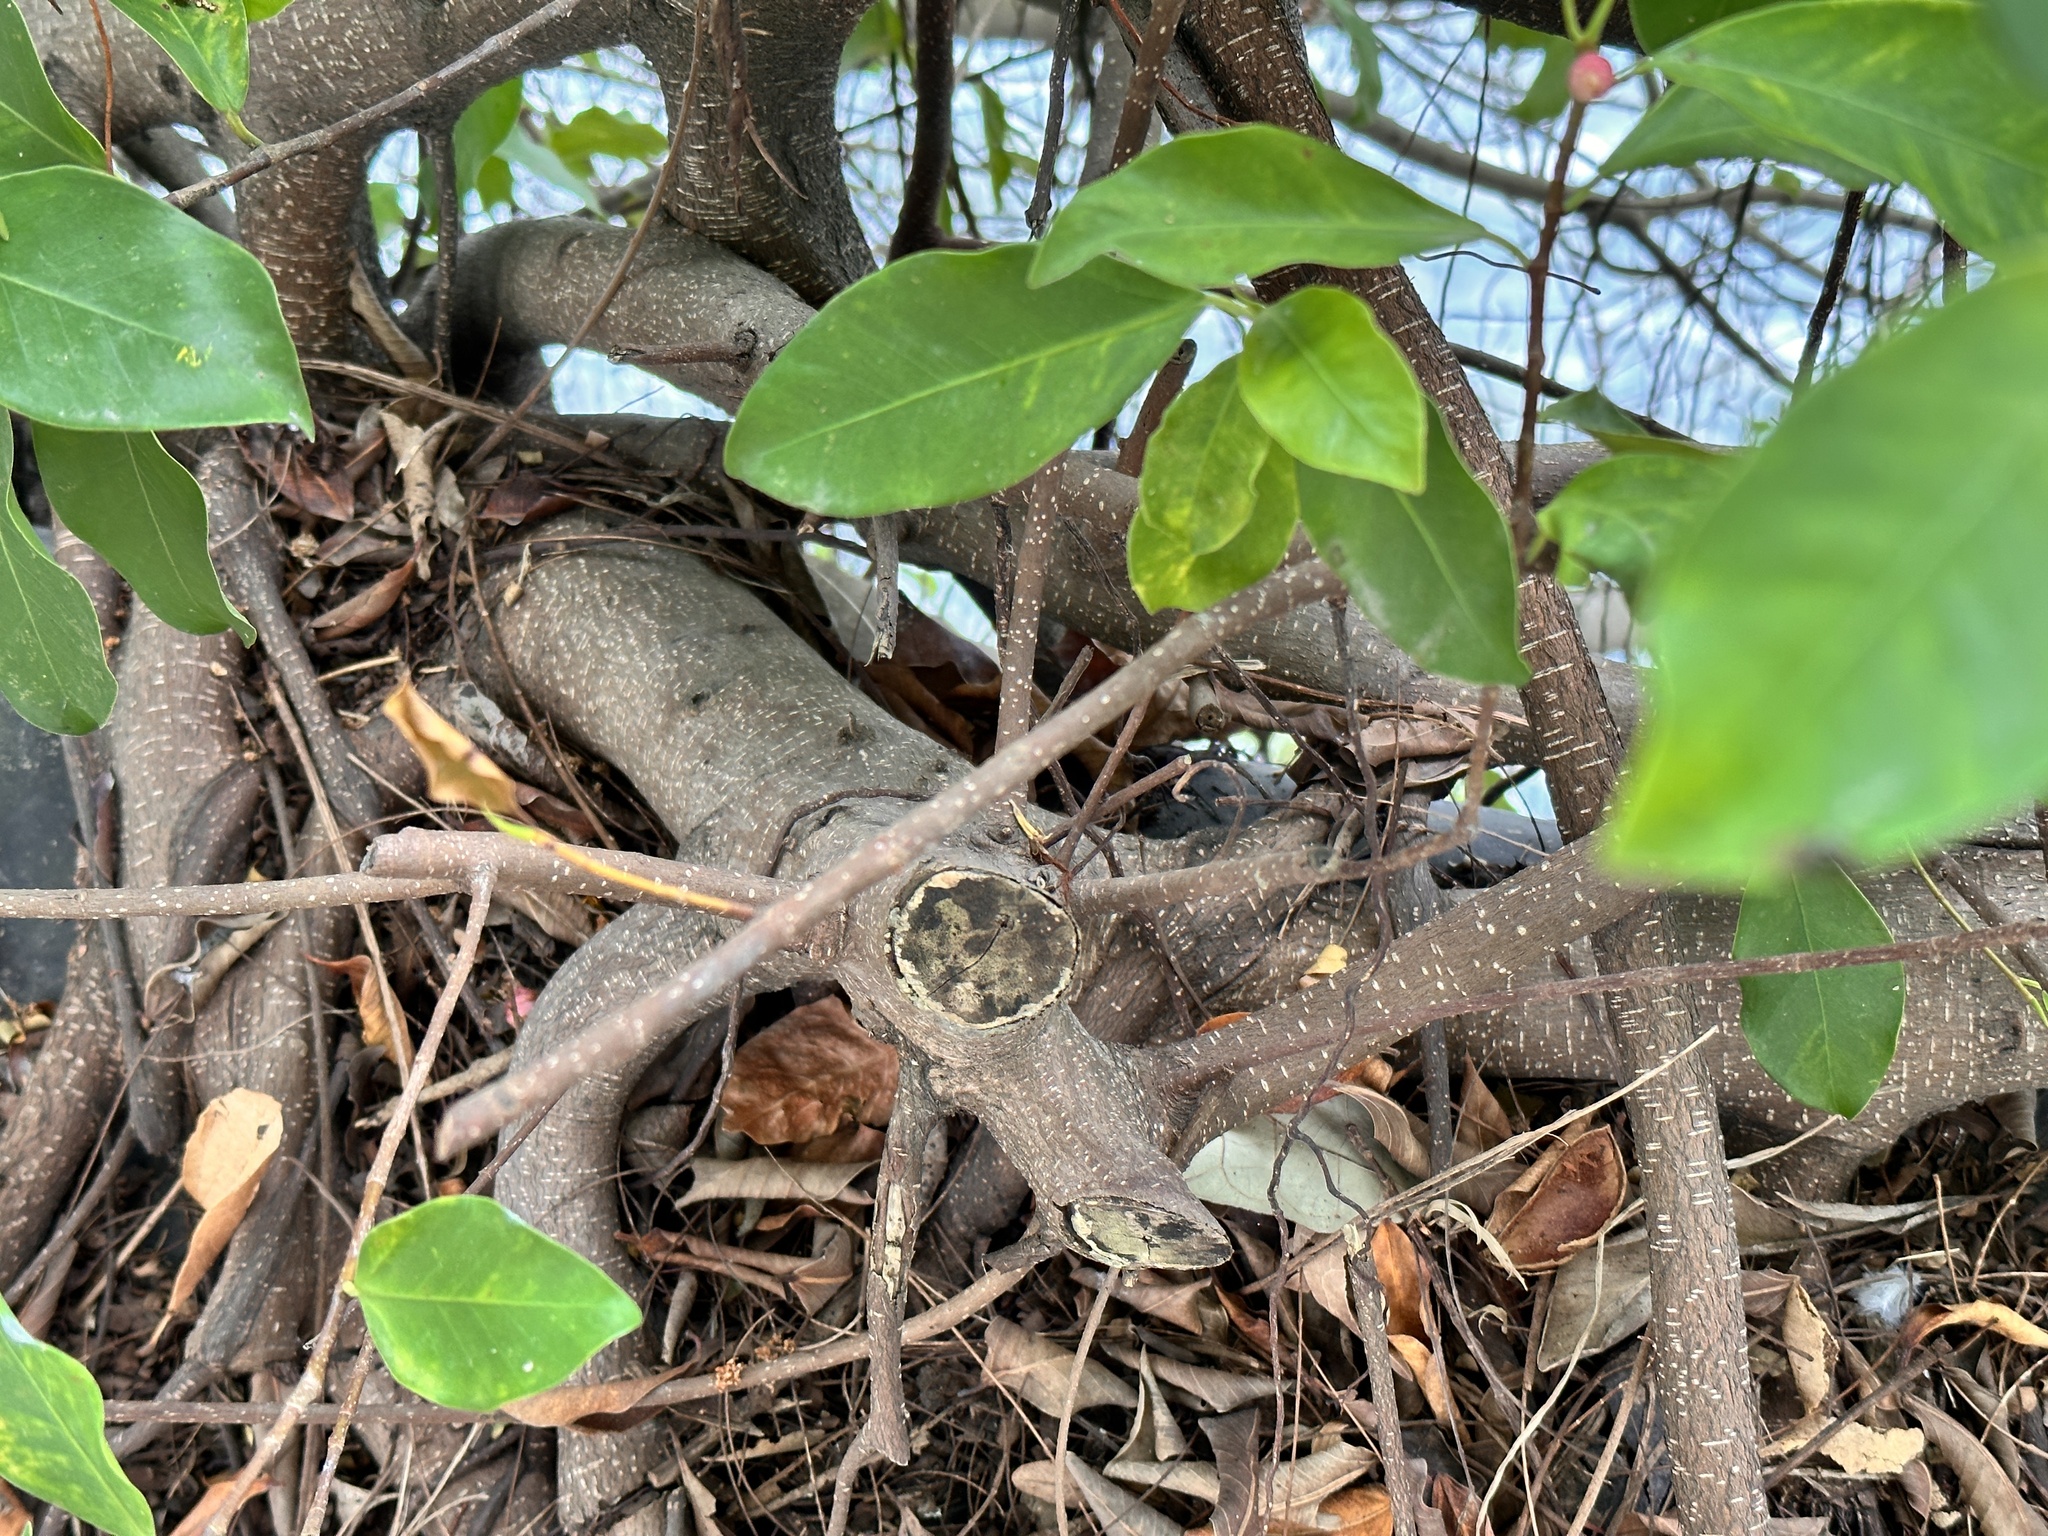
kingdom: Plantae
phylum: Tracheophyta
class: Magnoliopsida
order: Rosales
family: Moraceae
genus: Ficus
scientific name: Ficus microcarpa
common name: Chinese banyan
